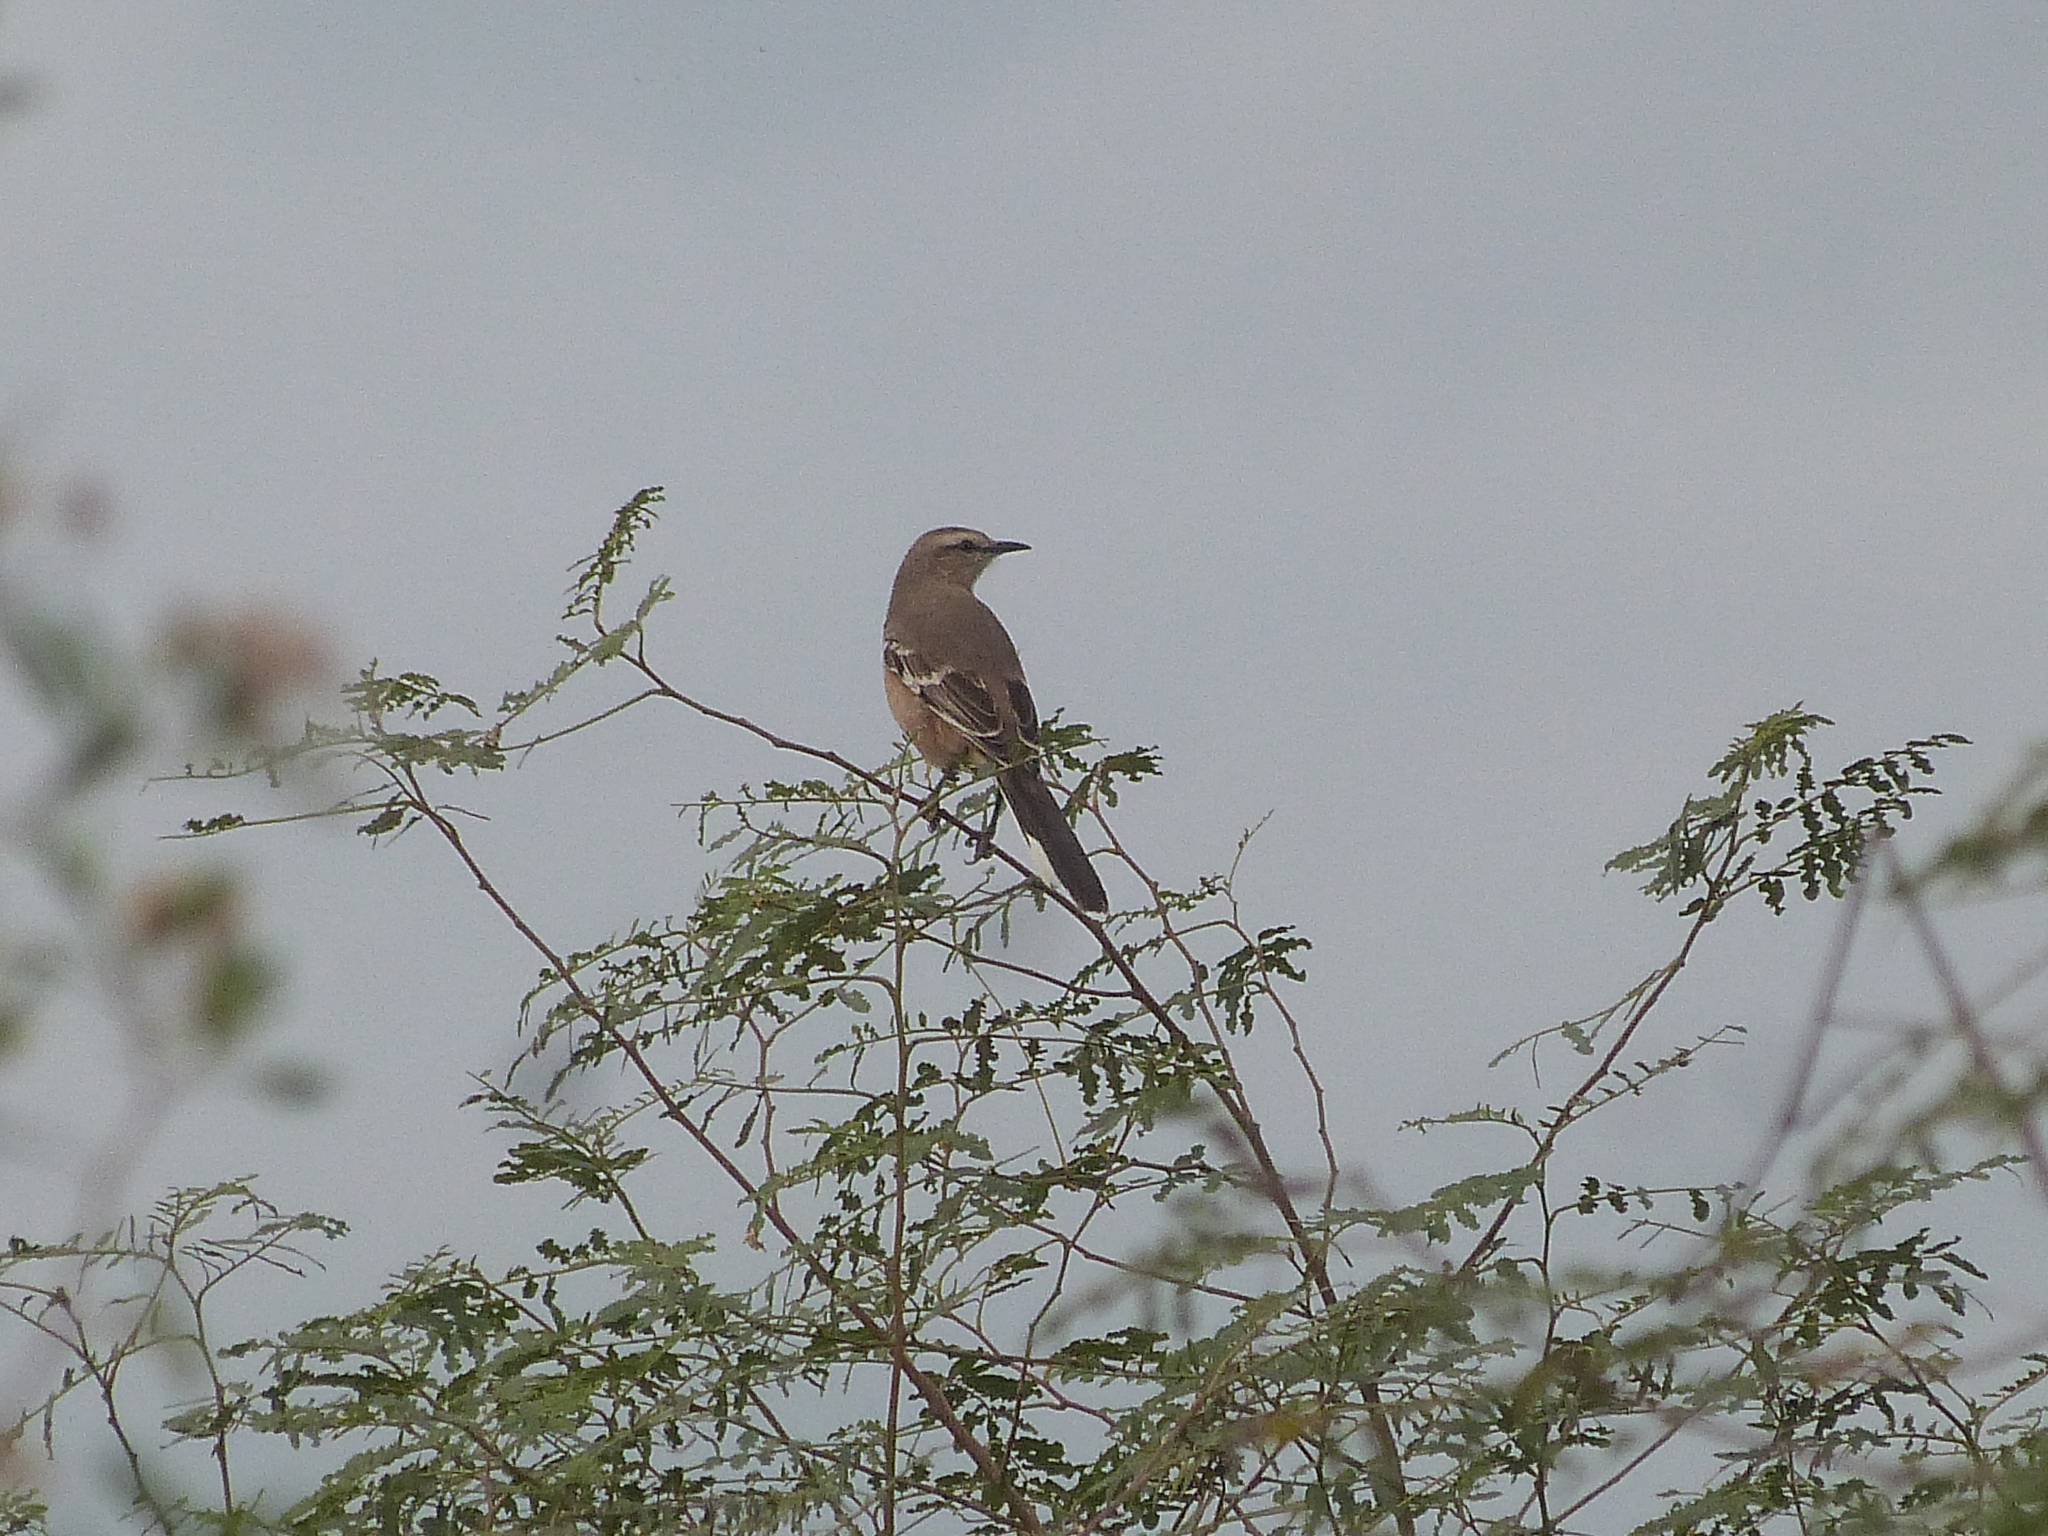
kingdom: Animalia
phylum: Chordata
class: Aves
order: Passeriformes
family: Mimidae
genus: Mimus
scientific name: Mimus patagonicus
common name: Patagonian mockingbird
